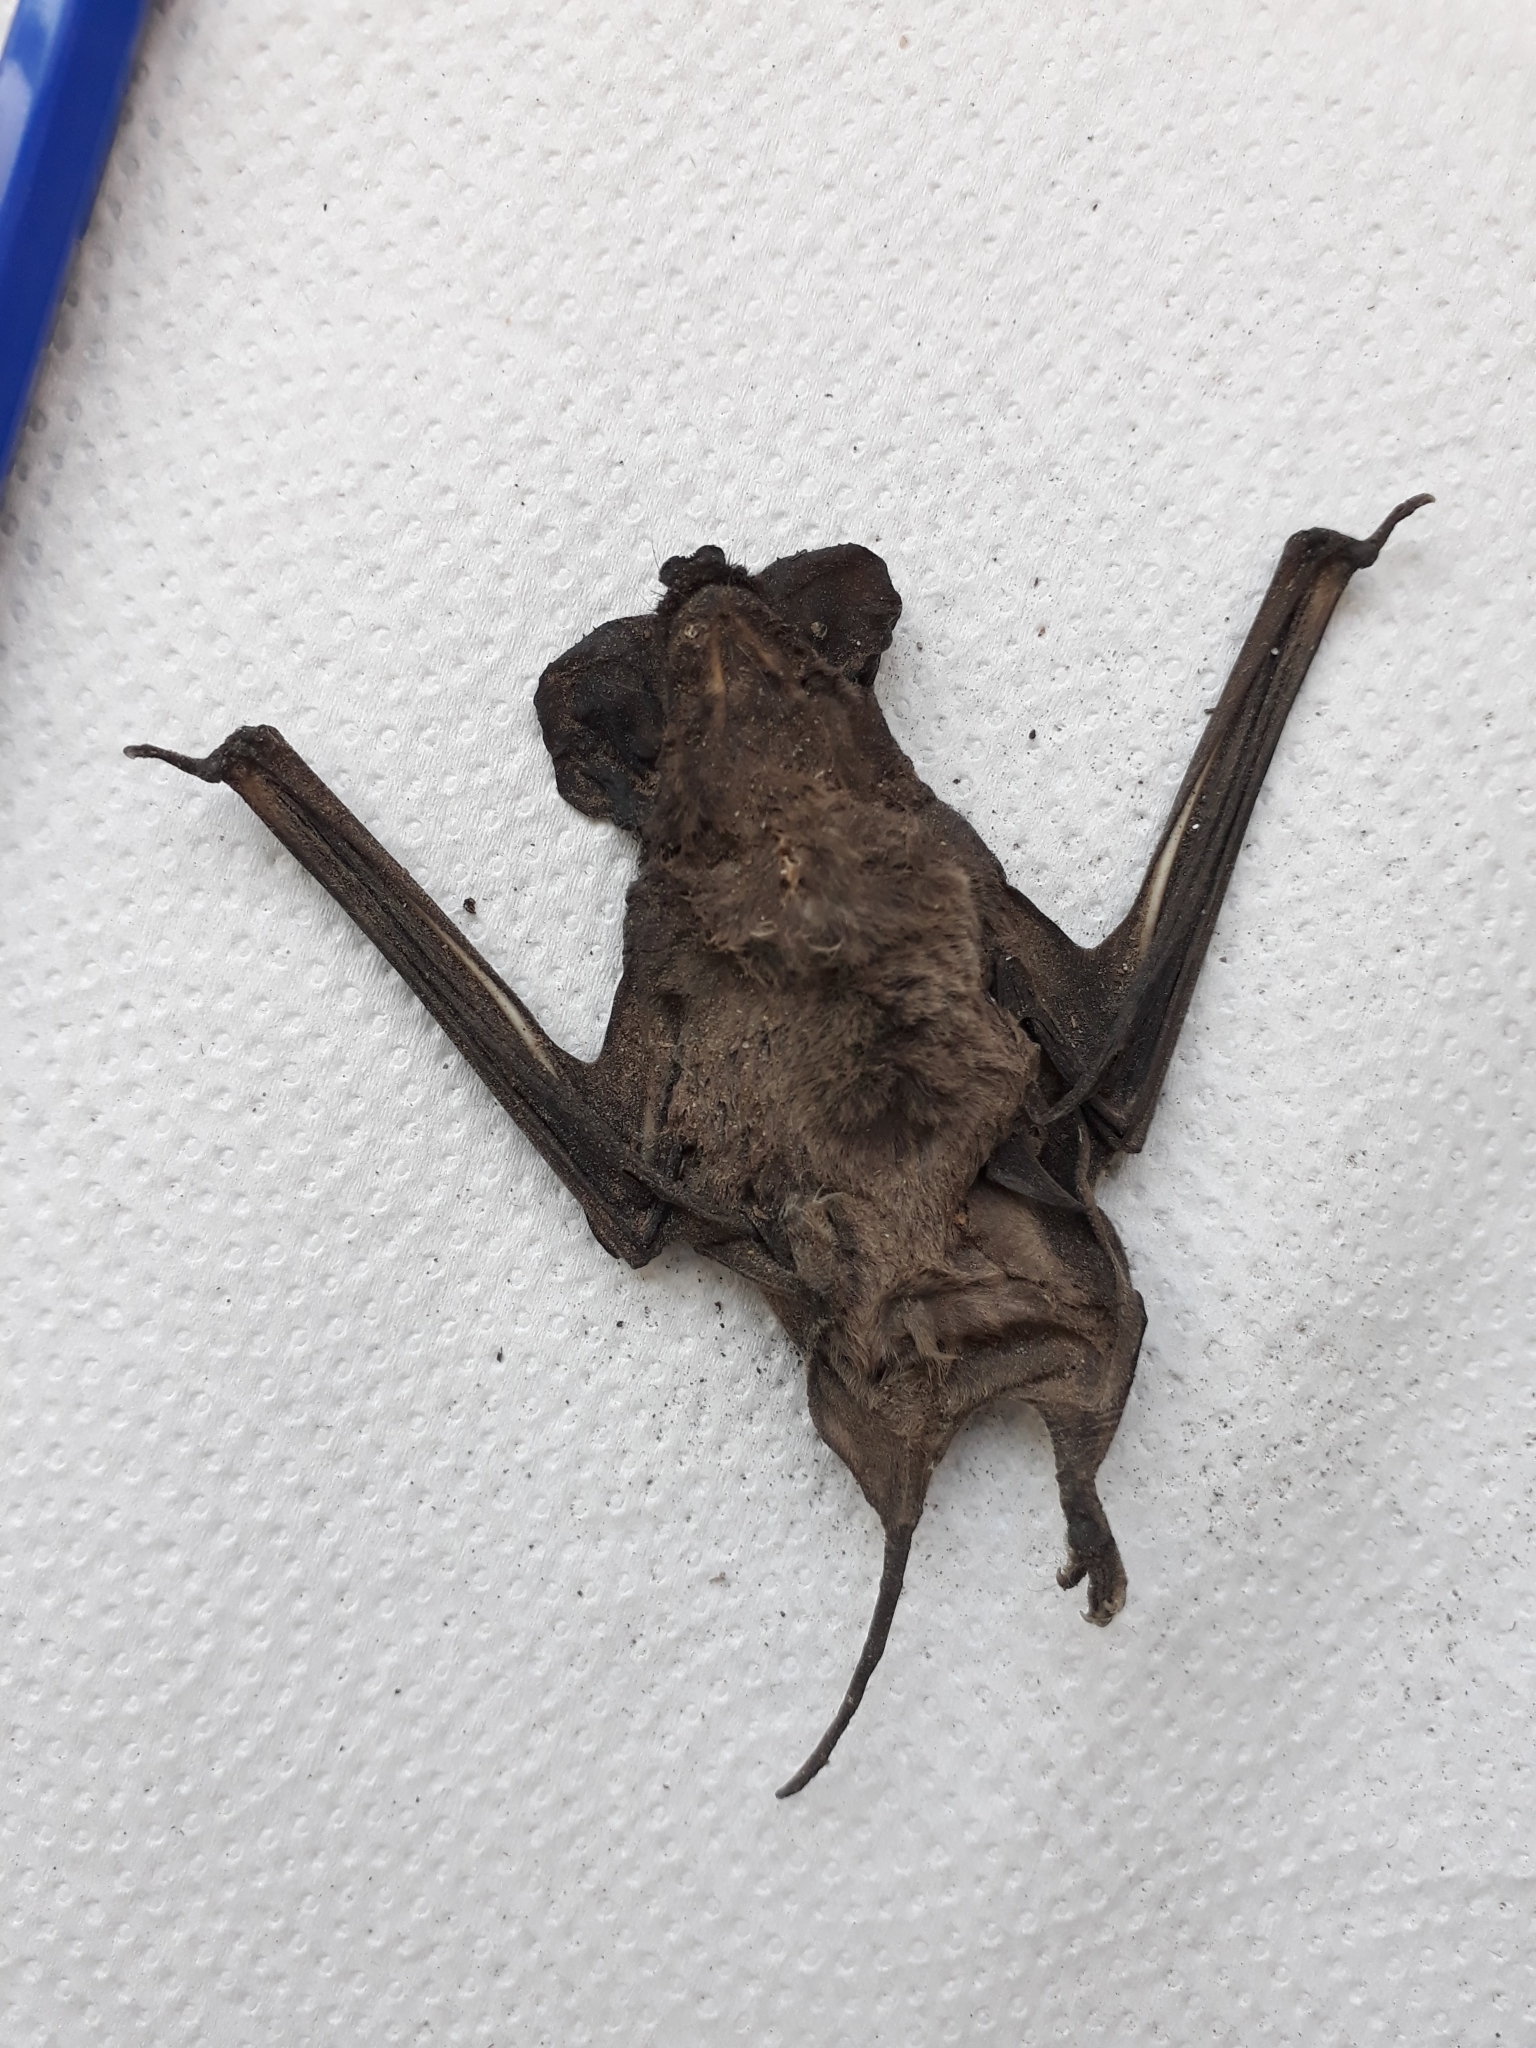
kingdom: Animalia
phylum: Chordata
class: Mammalia
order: Chiroptera
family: Molossidae
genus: Tadarida
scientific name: Tadarida brasiliensis
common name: Mexican free-tailed bat
